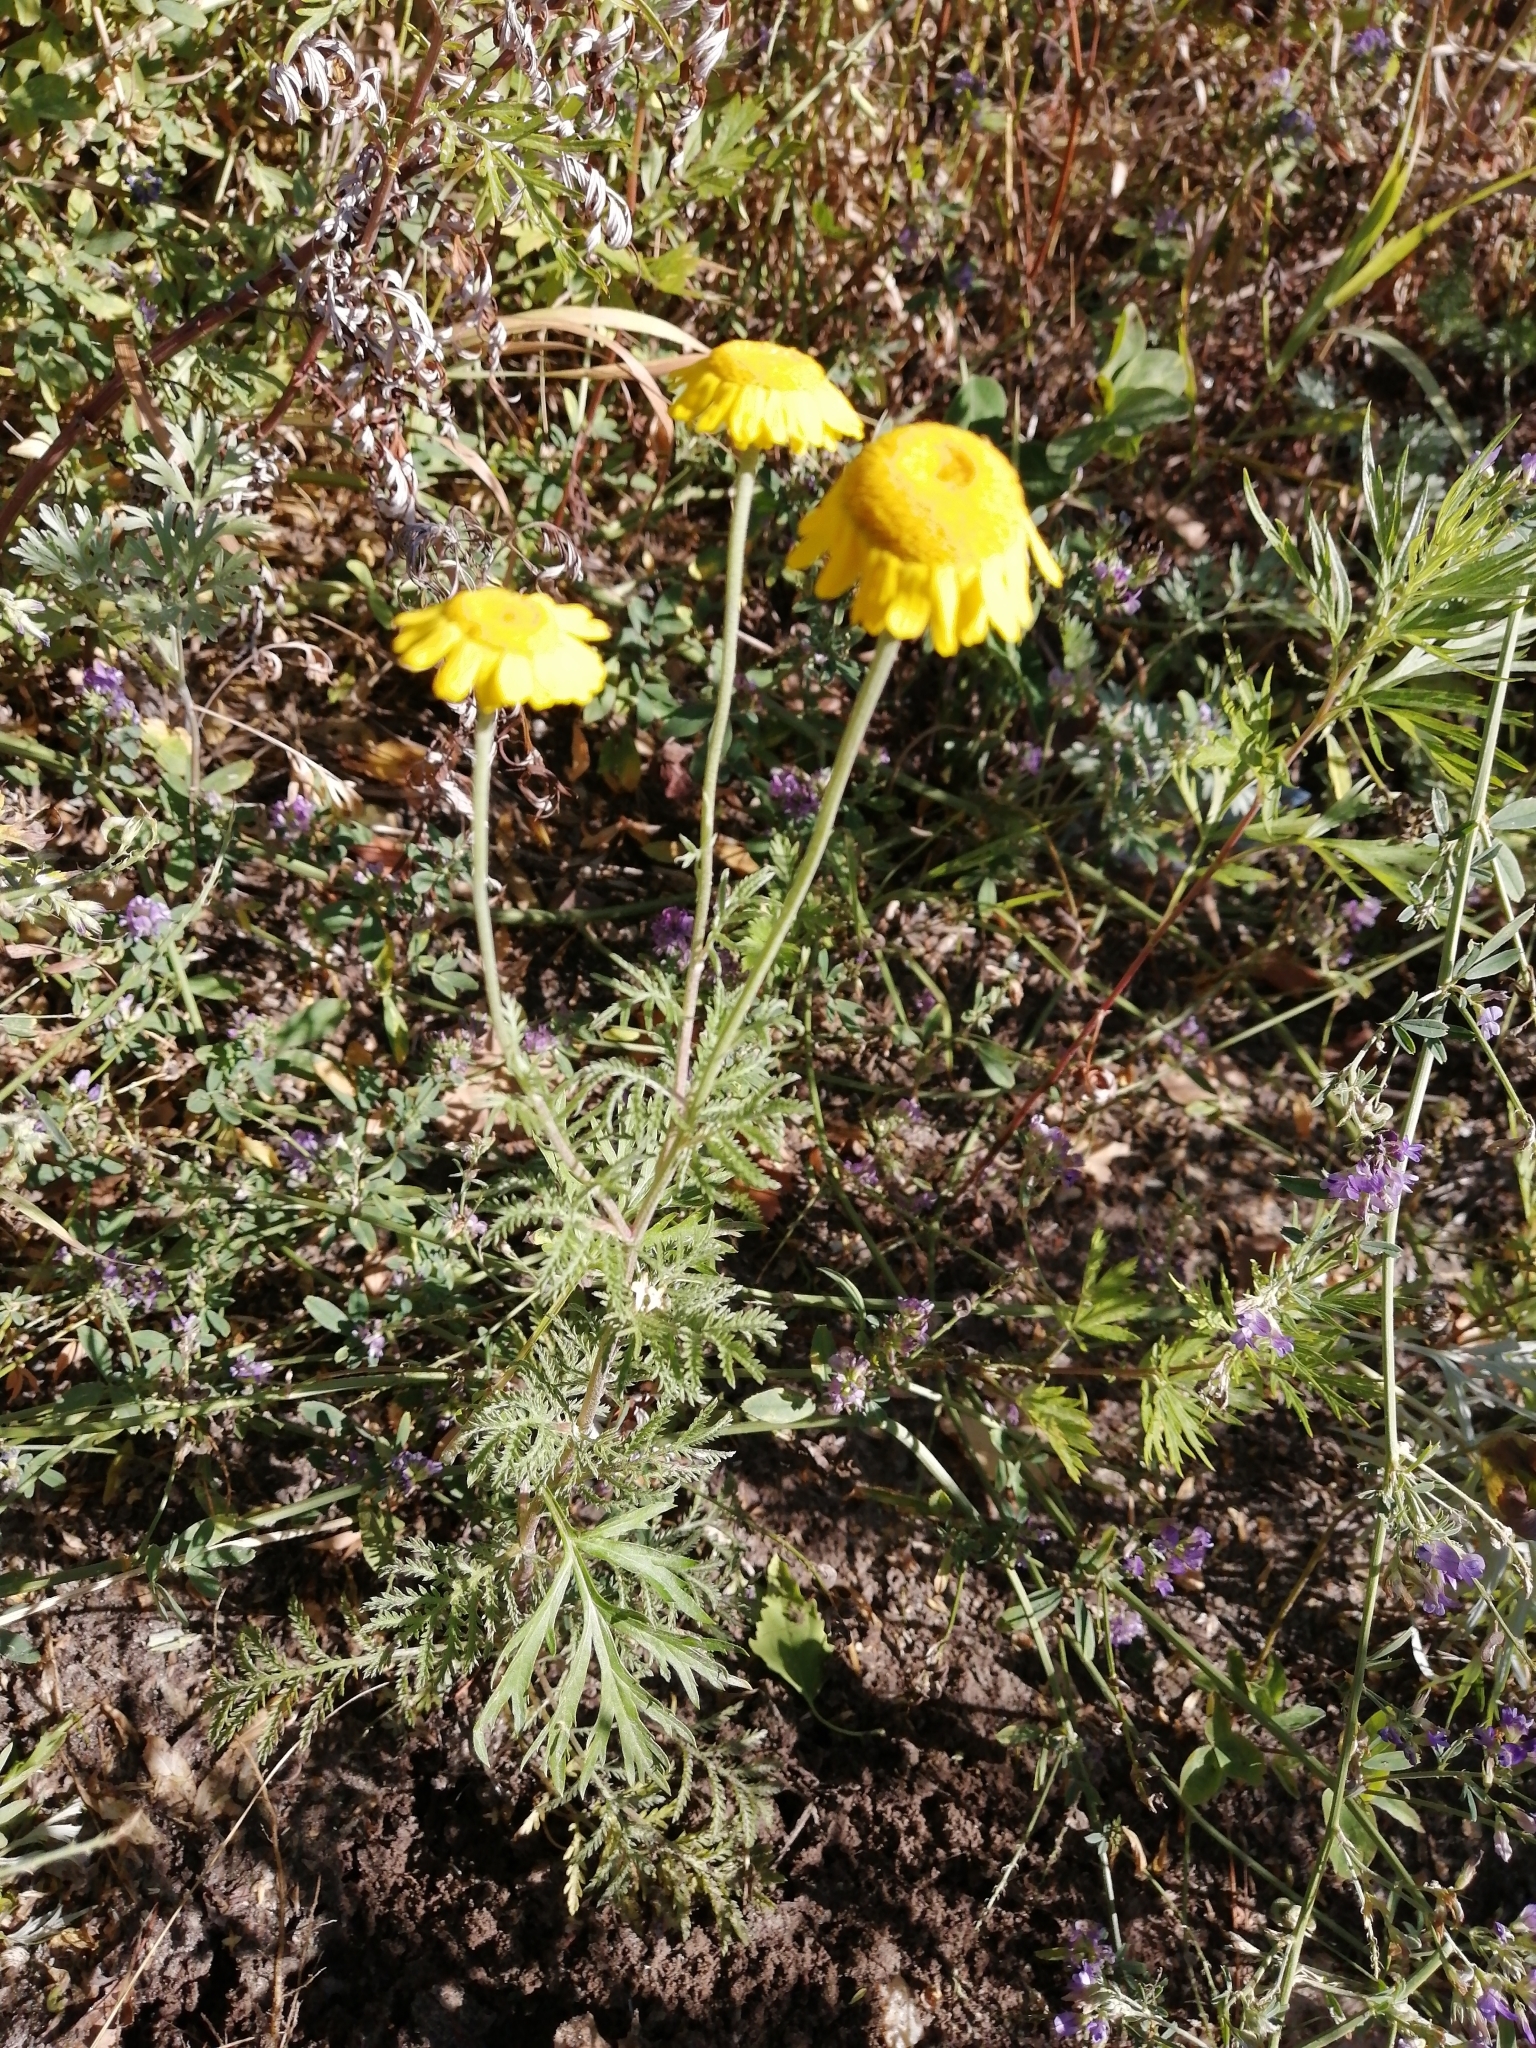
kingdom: Plantae
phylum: Tracheophyta
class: Magnoliopsida
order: Asterales
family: Asteraceae
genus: Cota
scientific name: Cota tinctoria
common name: Golden chamomile
